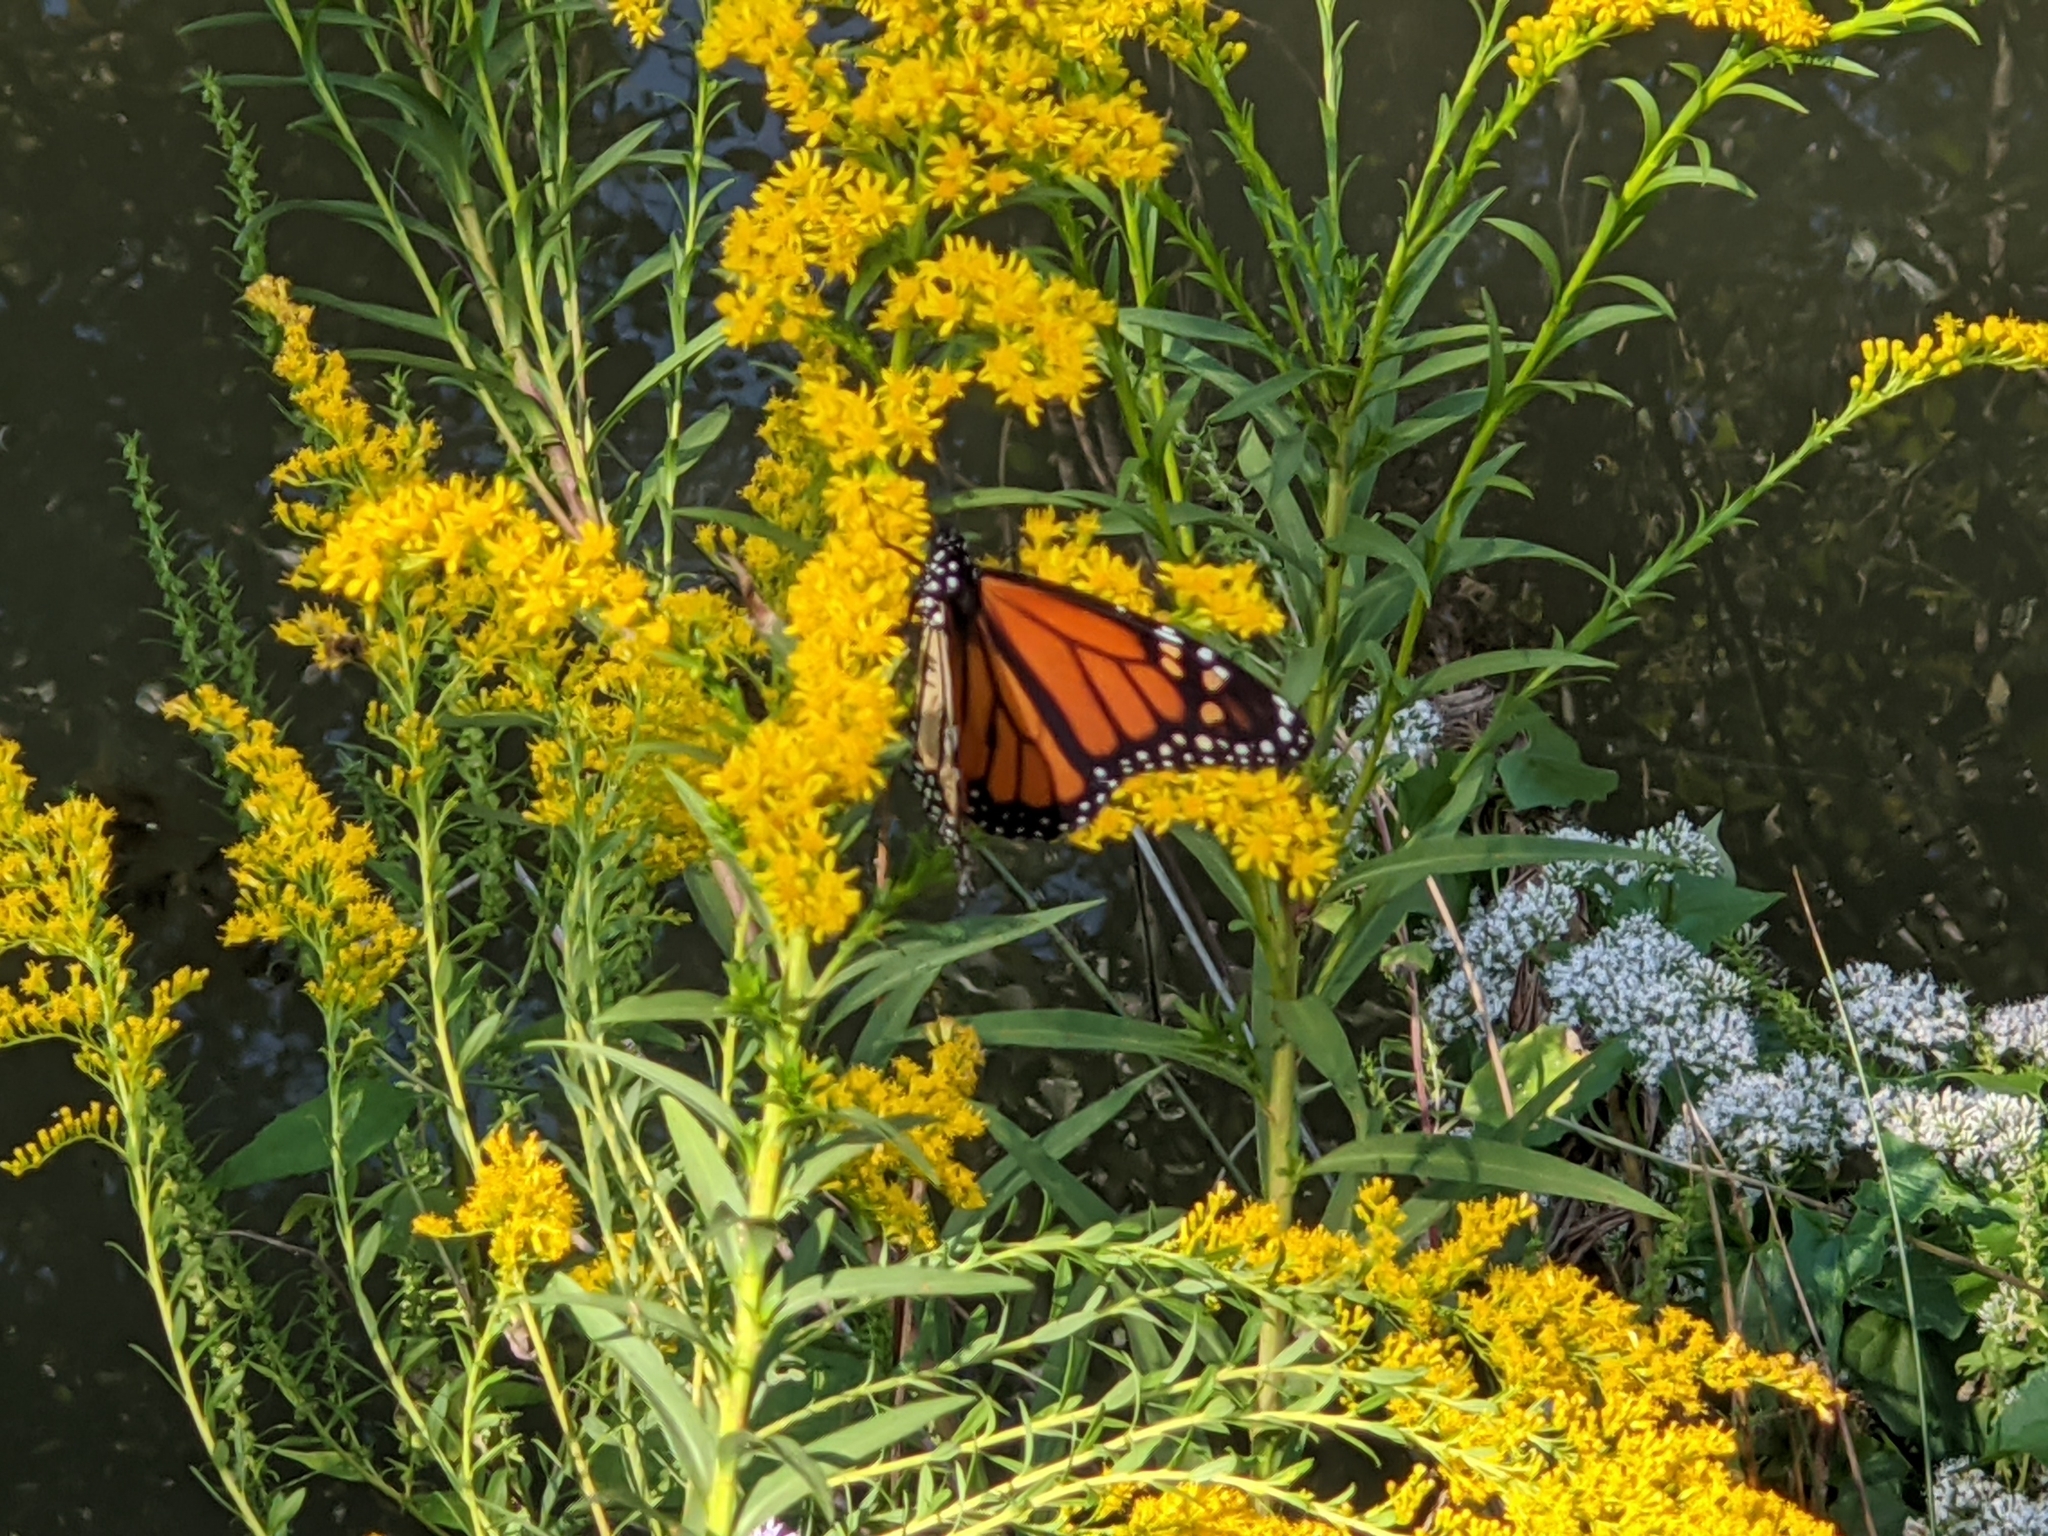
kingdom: Animalia
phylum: Arthropoda
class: Insecta
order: Lepidoptera
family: Nymphalidae
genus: Danaus
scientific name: Danaus plexippus
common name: Monarch
